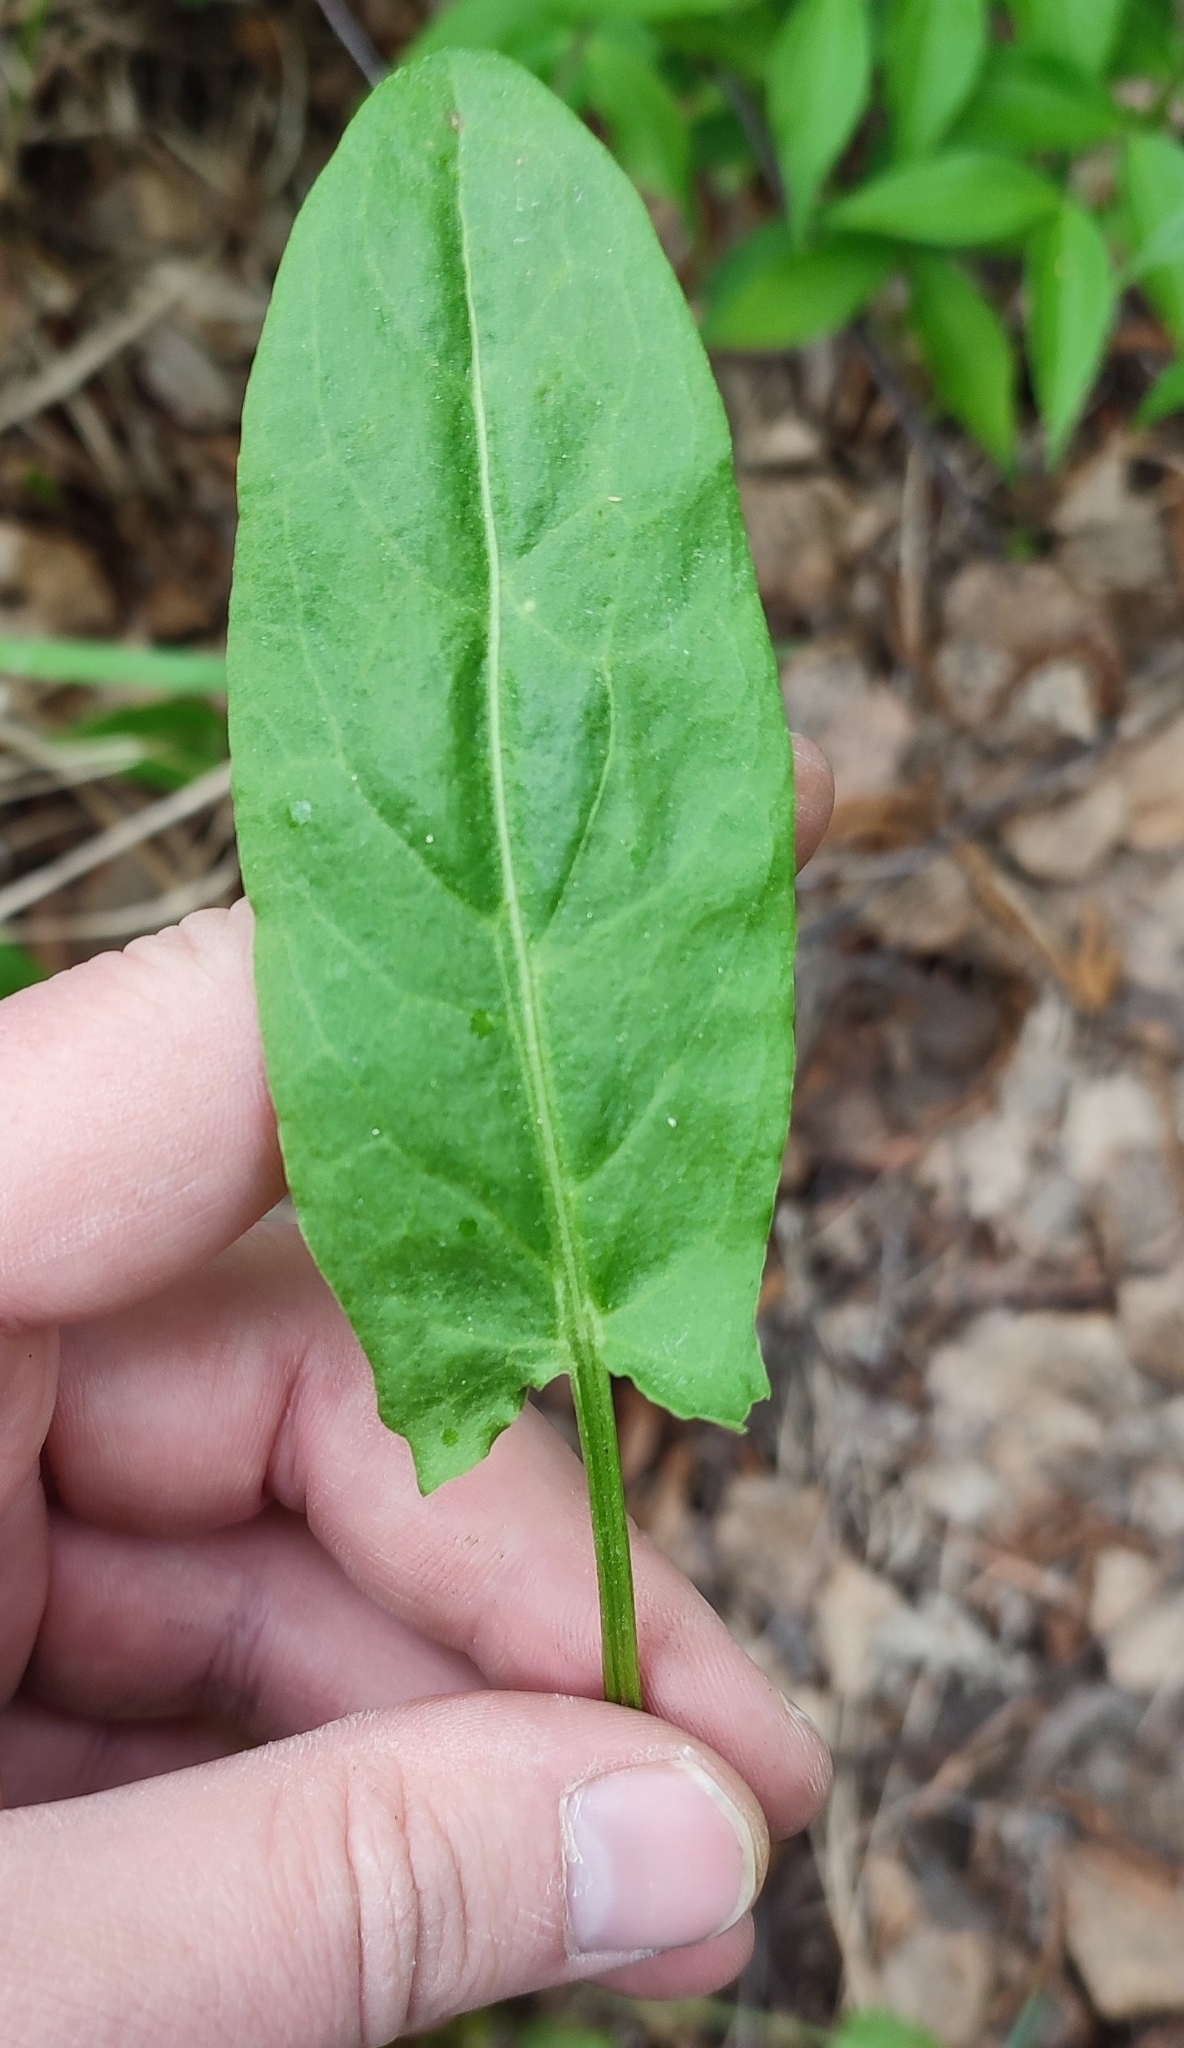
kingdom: Plantae
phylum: Tracheophyta
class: Magnoliopsida
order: Caryophyllales
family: Polygonaceae
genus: Rumex
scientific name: Rumex thyrsiflorus
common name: Garden sorrel
